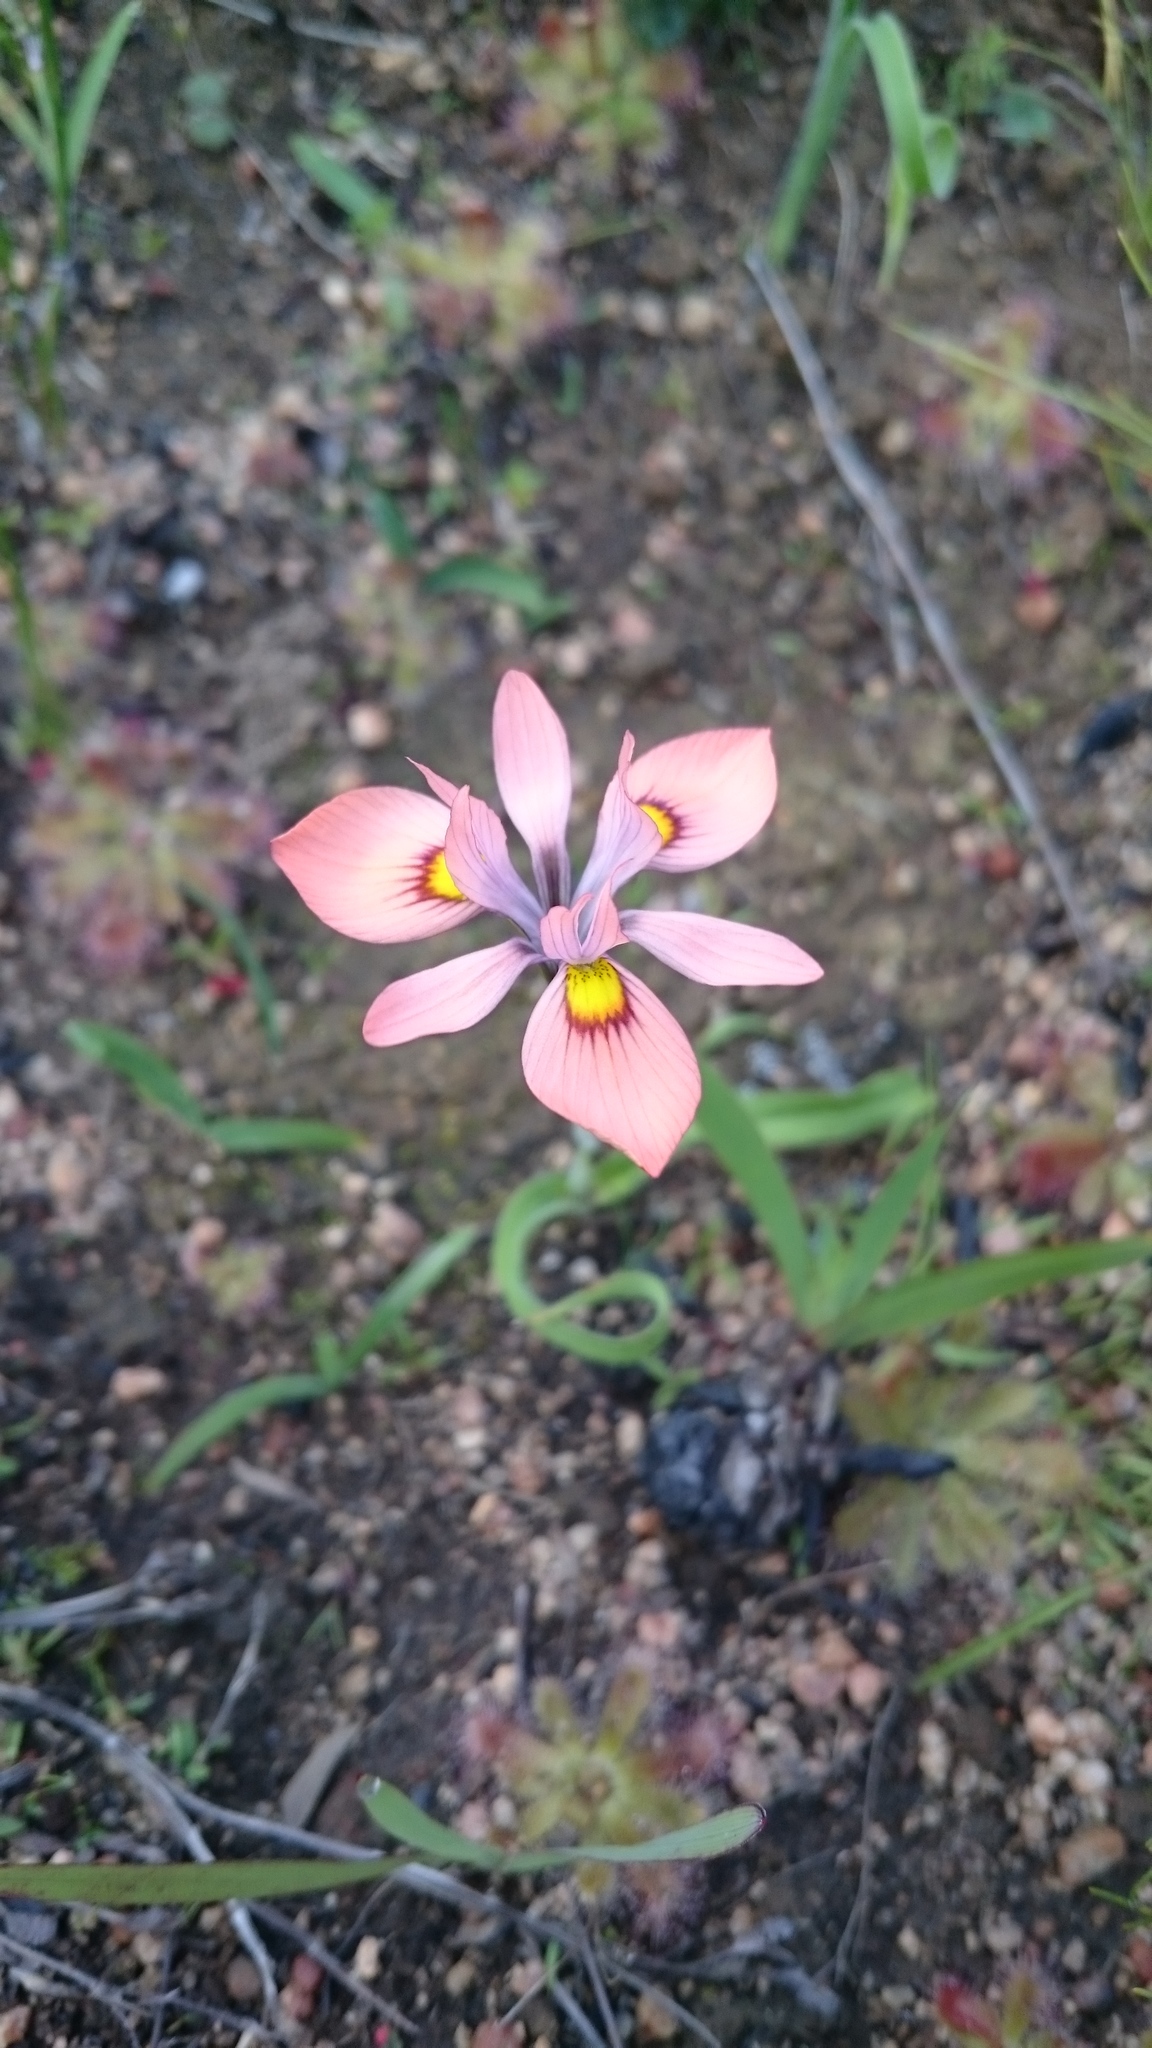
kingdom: Plantae
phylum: Tracheophyta
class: Liliopsida
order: Asparagales
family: Iridaceae
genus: Moraea
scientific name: Moraea tricolor
